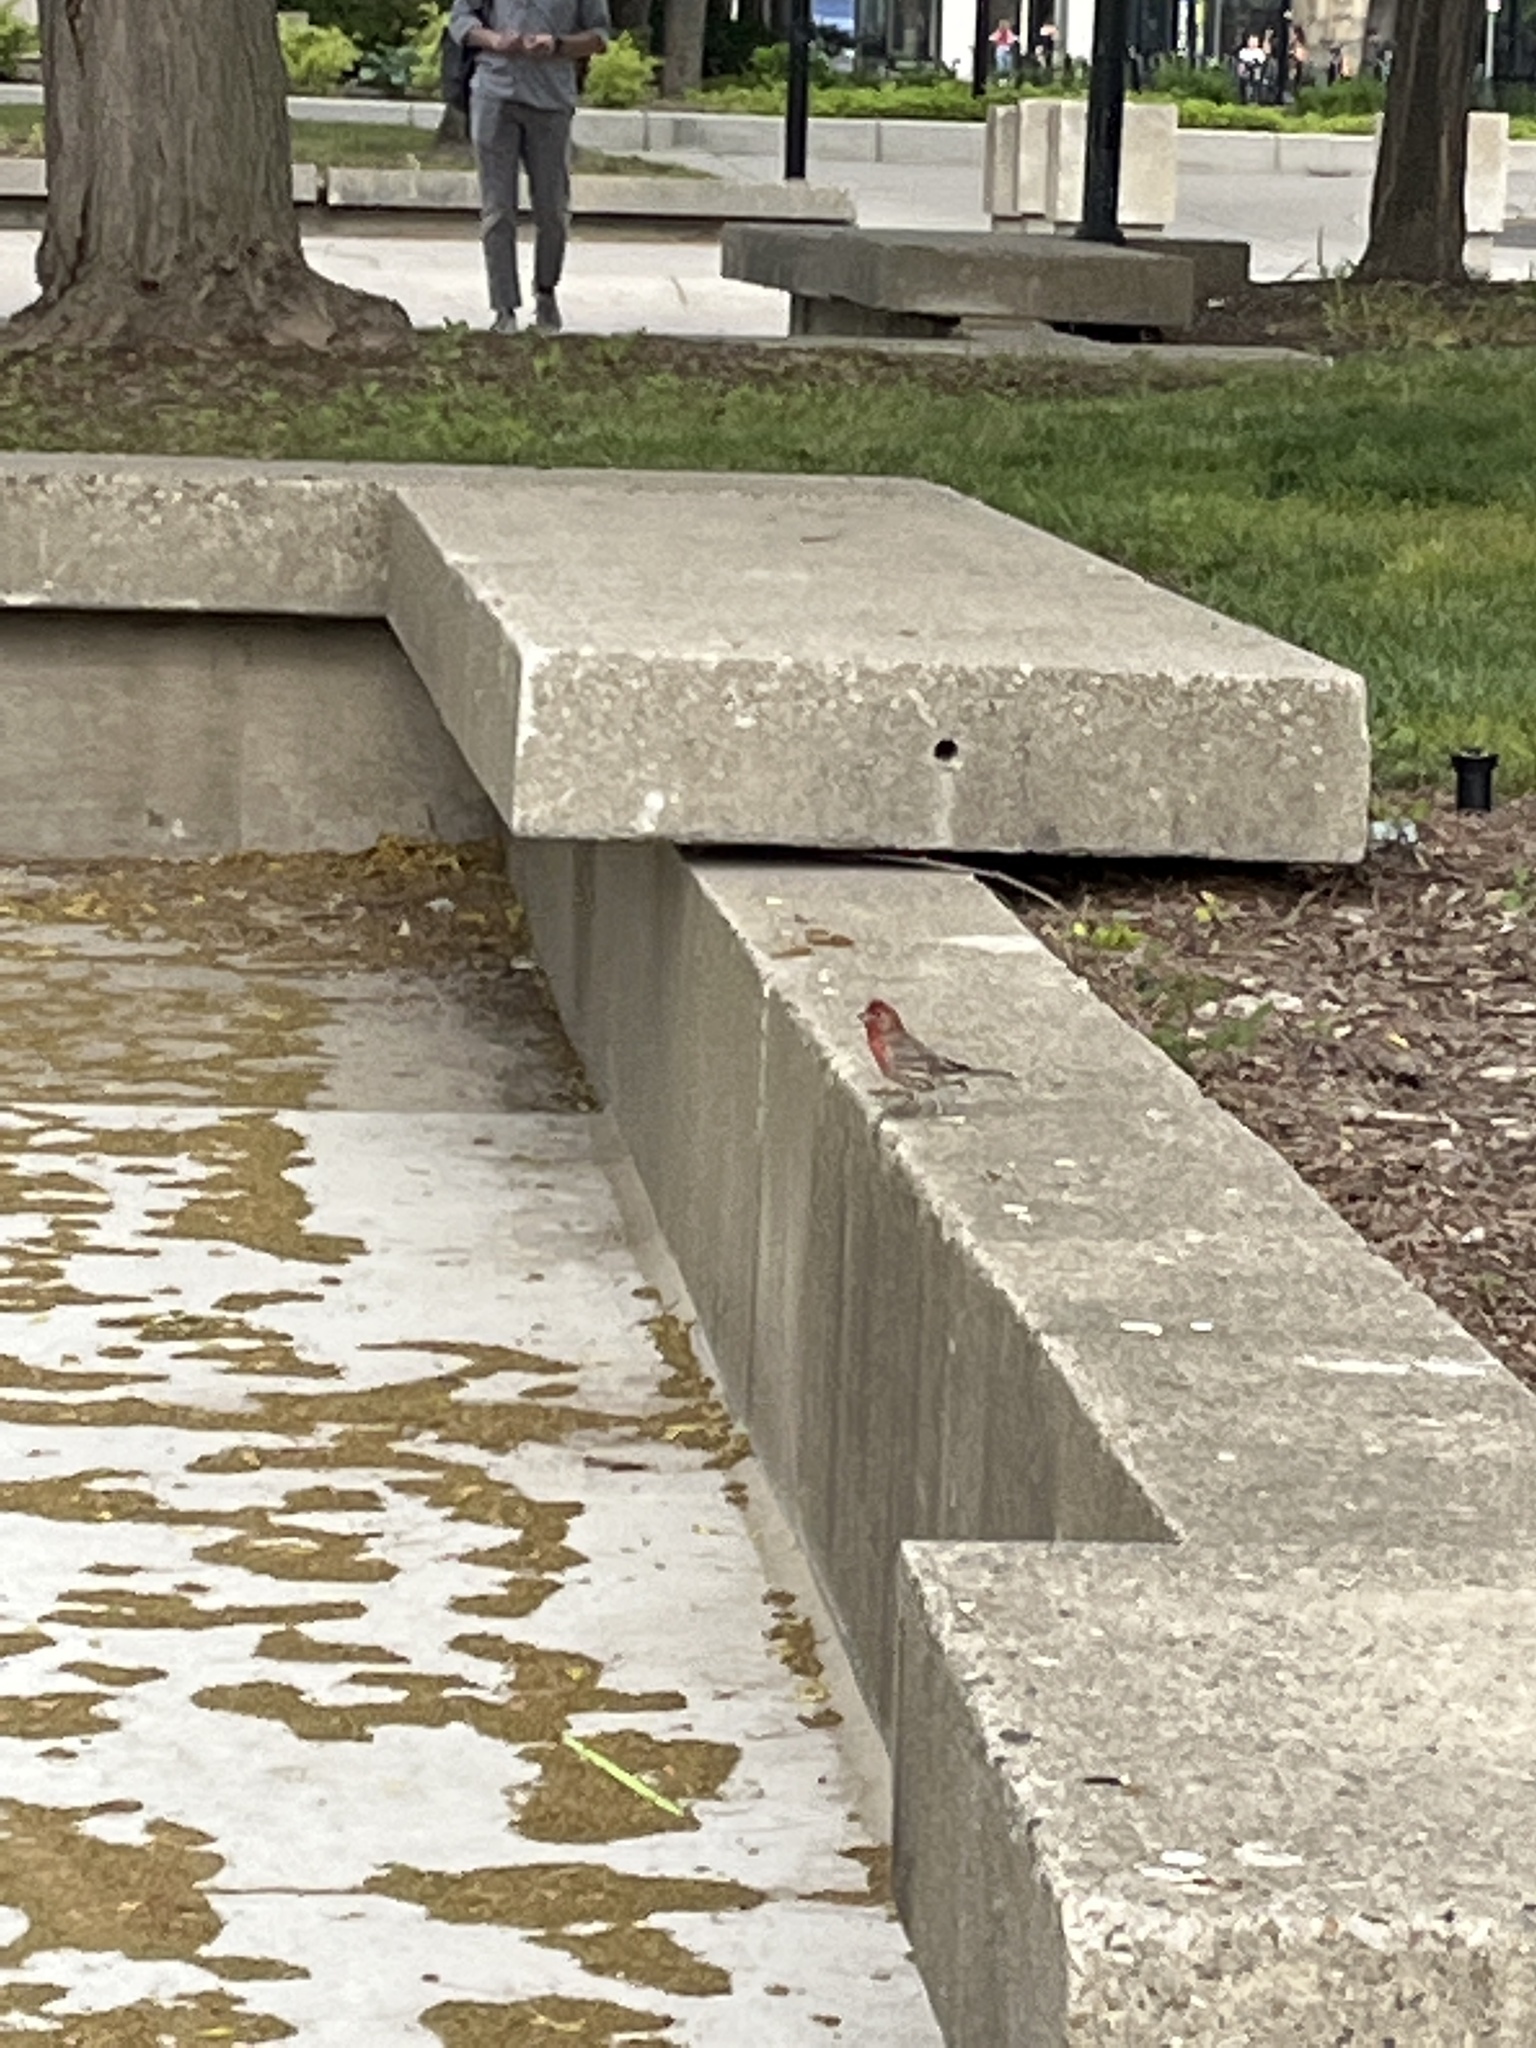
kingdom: Animalia
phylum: Chordata
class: Aves
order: Passeriformes
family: Fringillidae
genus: Haemorhous
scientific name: Haemorhous mexicanus
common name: House finch
